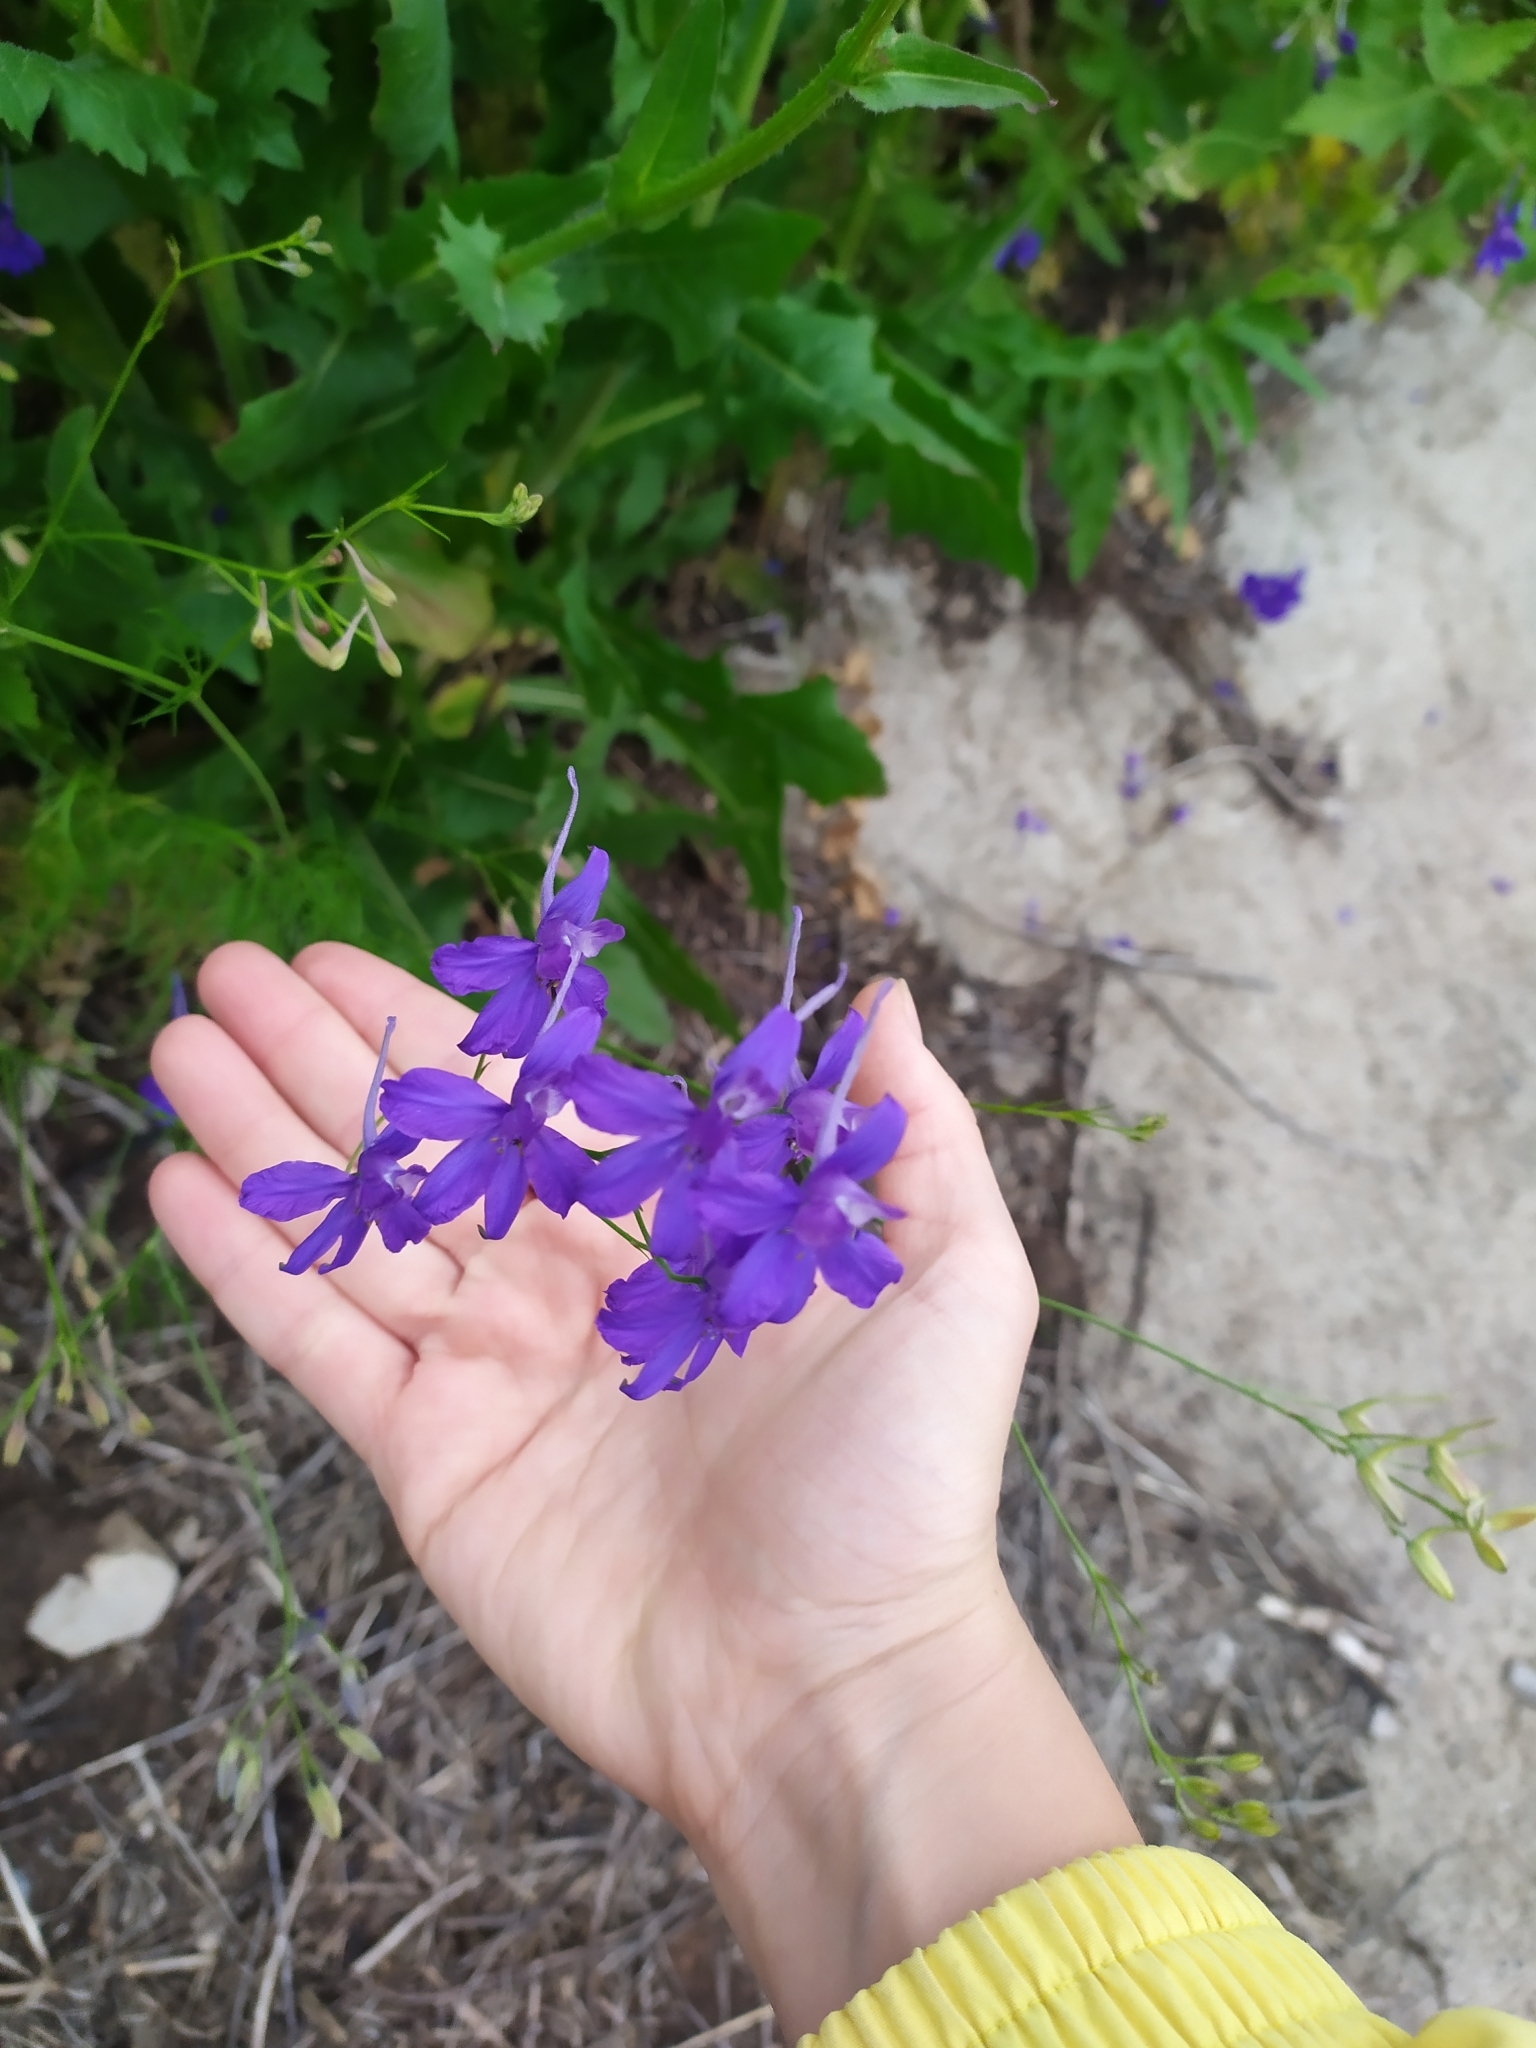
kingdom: Plantae
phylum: Tracheophyta
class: Magnoliopsida
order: Ranunculales
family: Ranunculaceae
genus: Delphinium
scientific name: Delphinium consolida
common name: Branching larkspur
